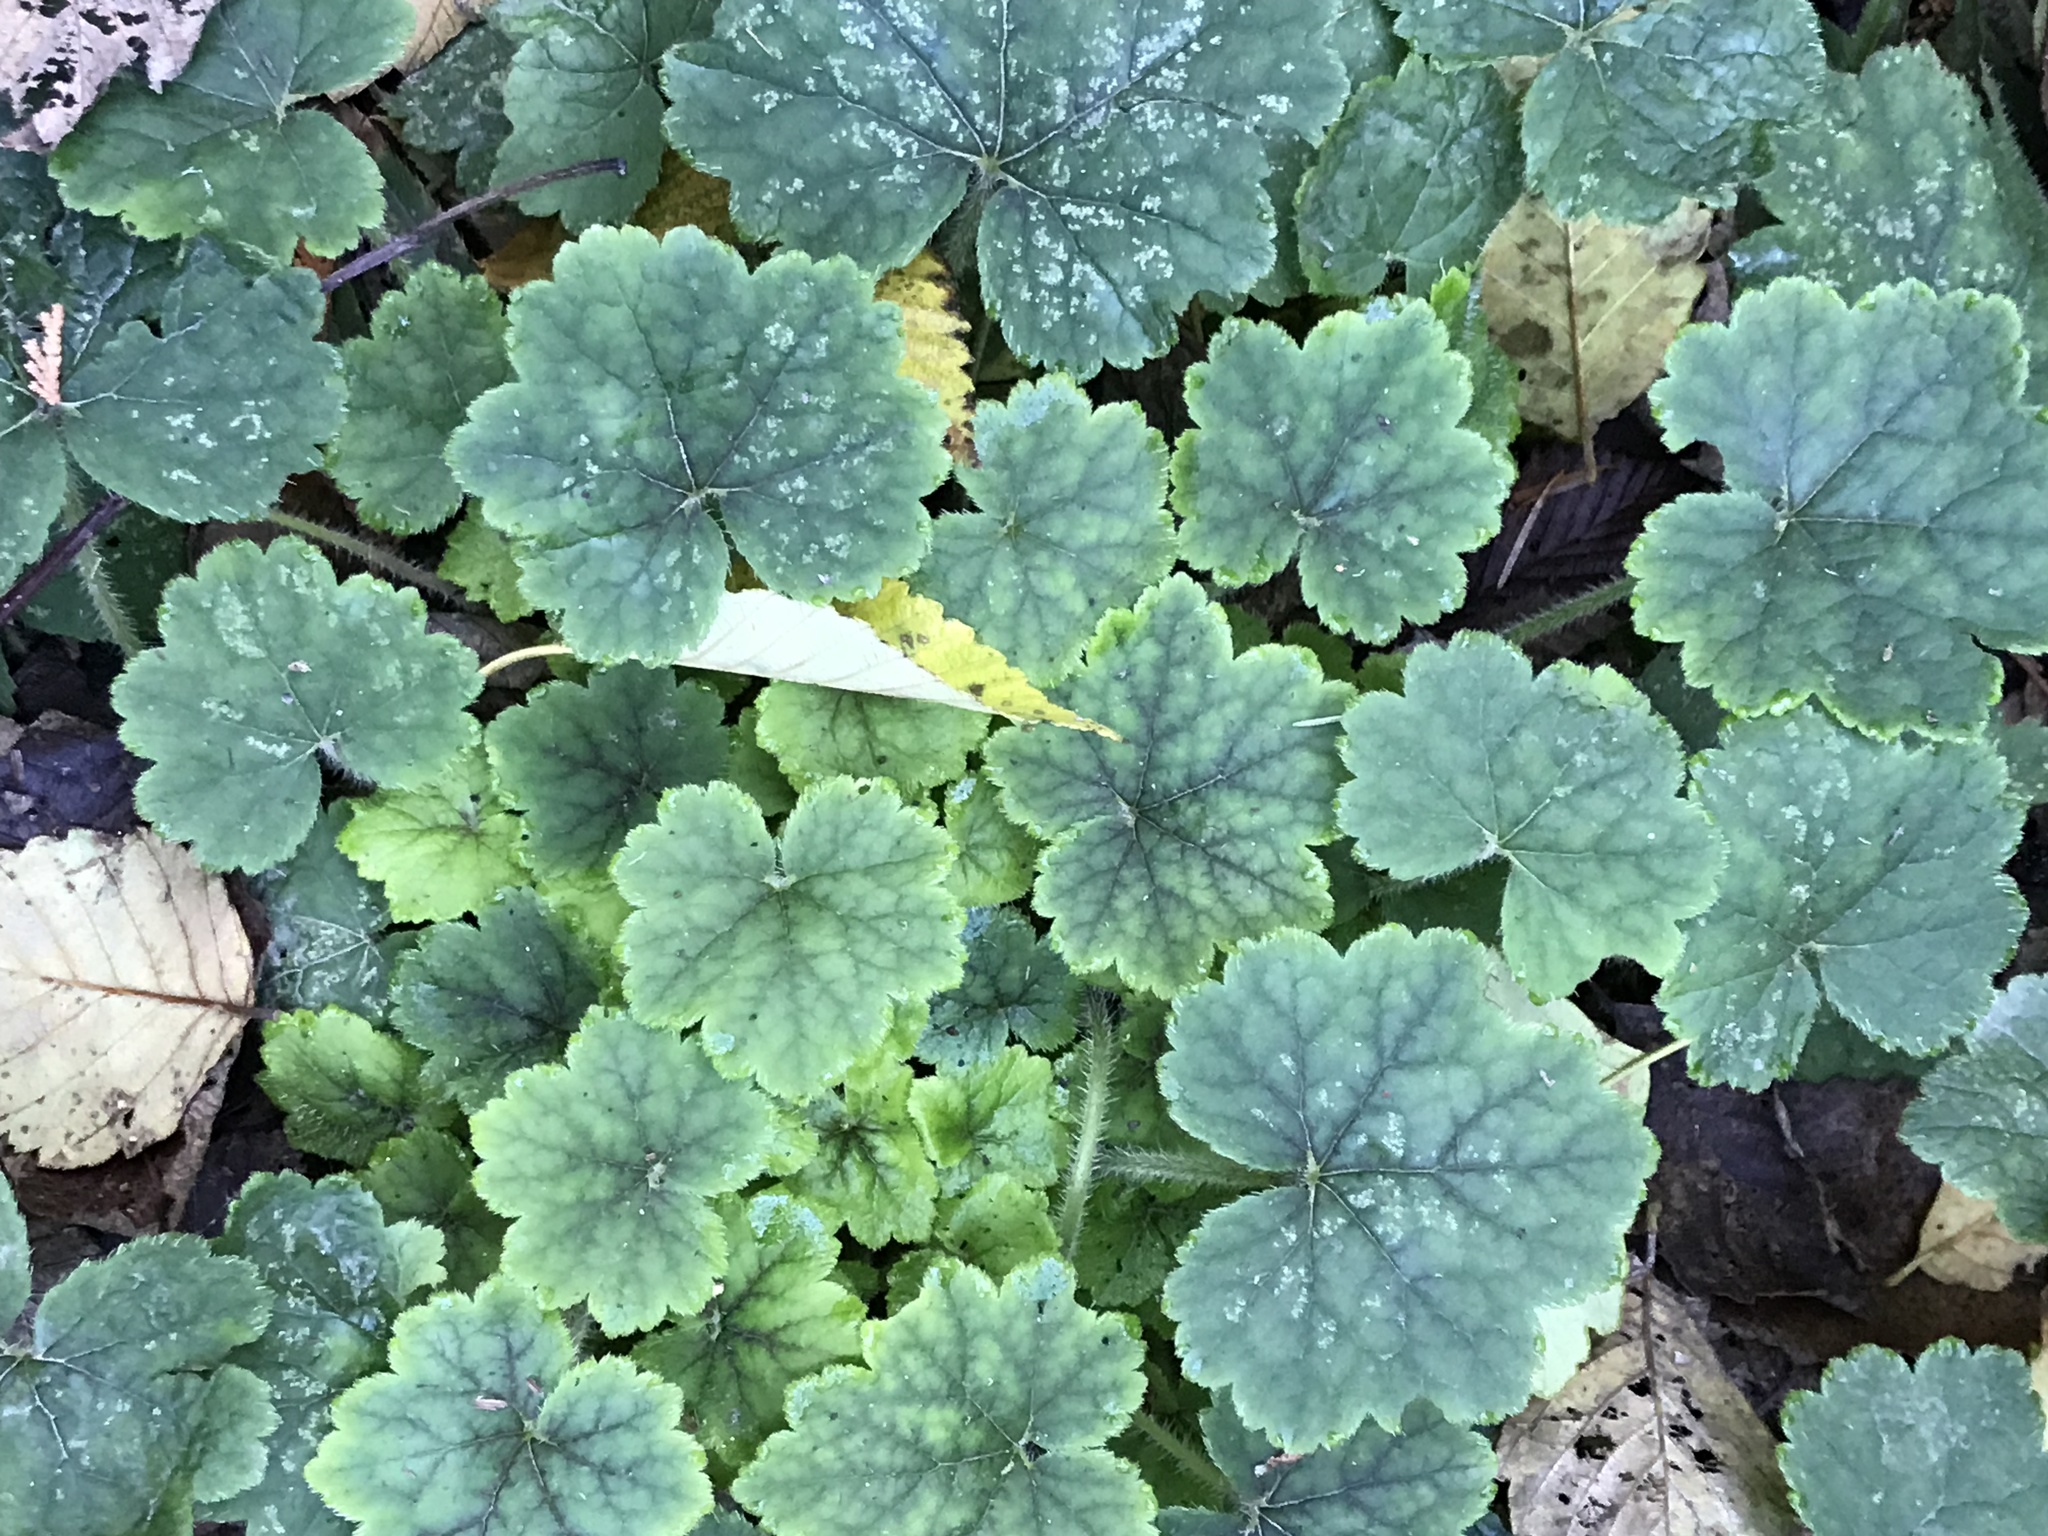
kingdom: Plantae
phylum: Tracheophyta
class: Magnoliopsida
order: Saxifragales
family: Saxifragaceae
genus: Tellima
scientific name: Tellima grandiflora
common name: Fringecups
